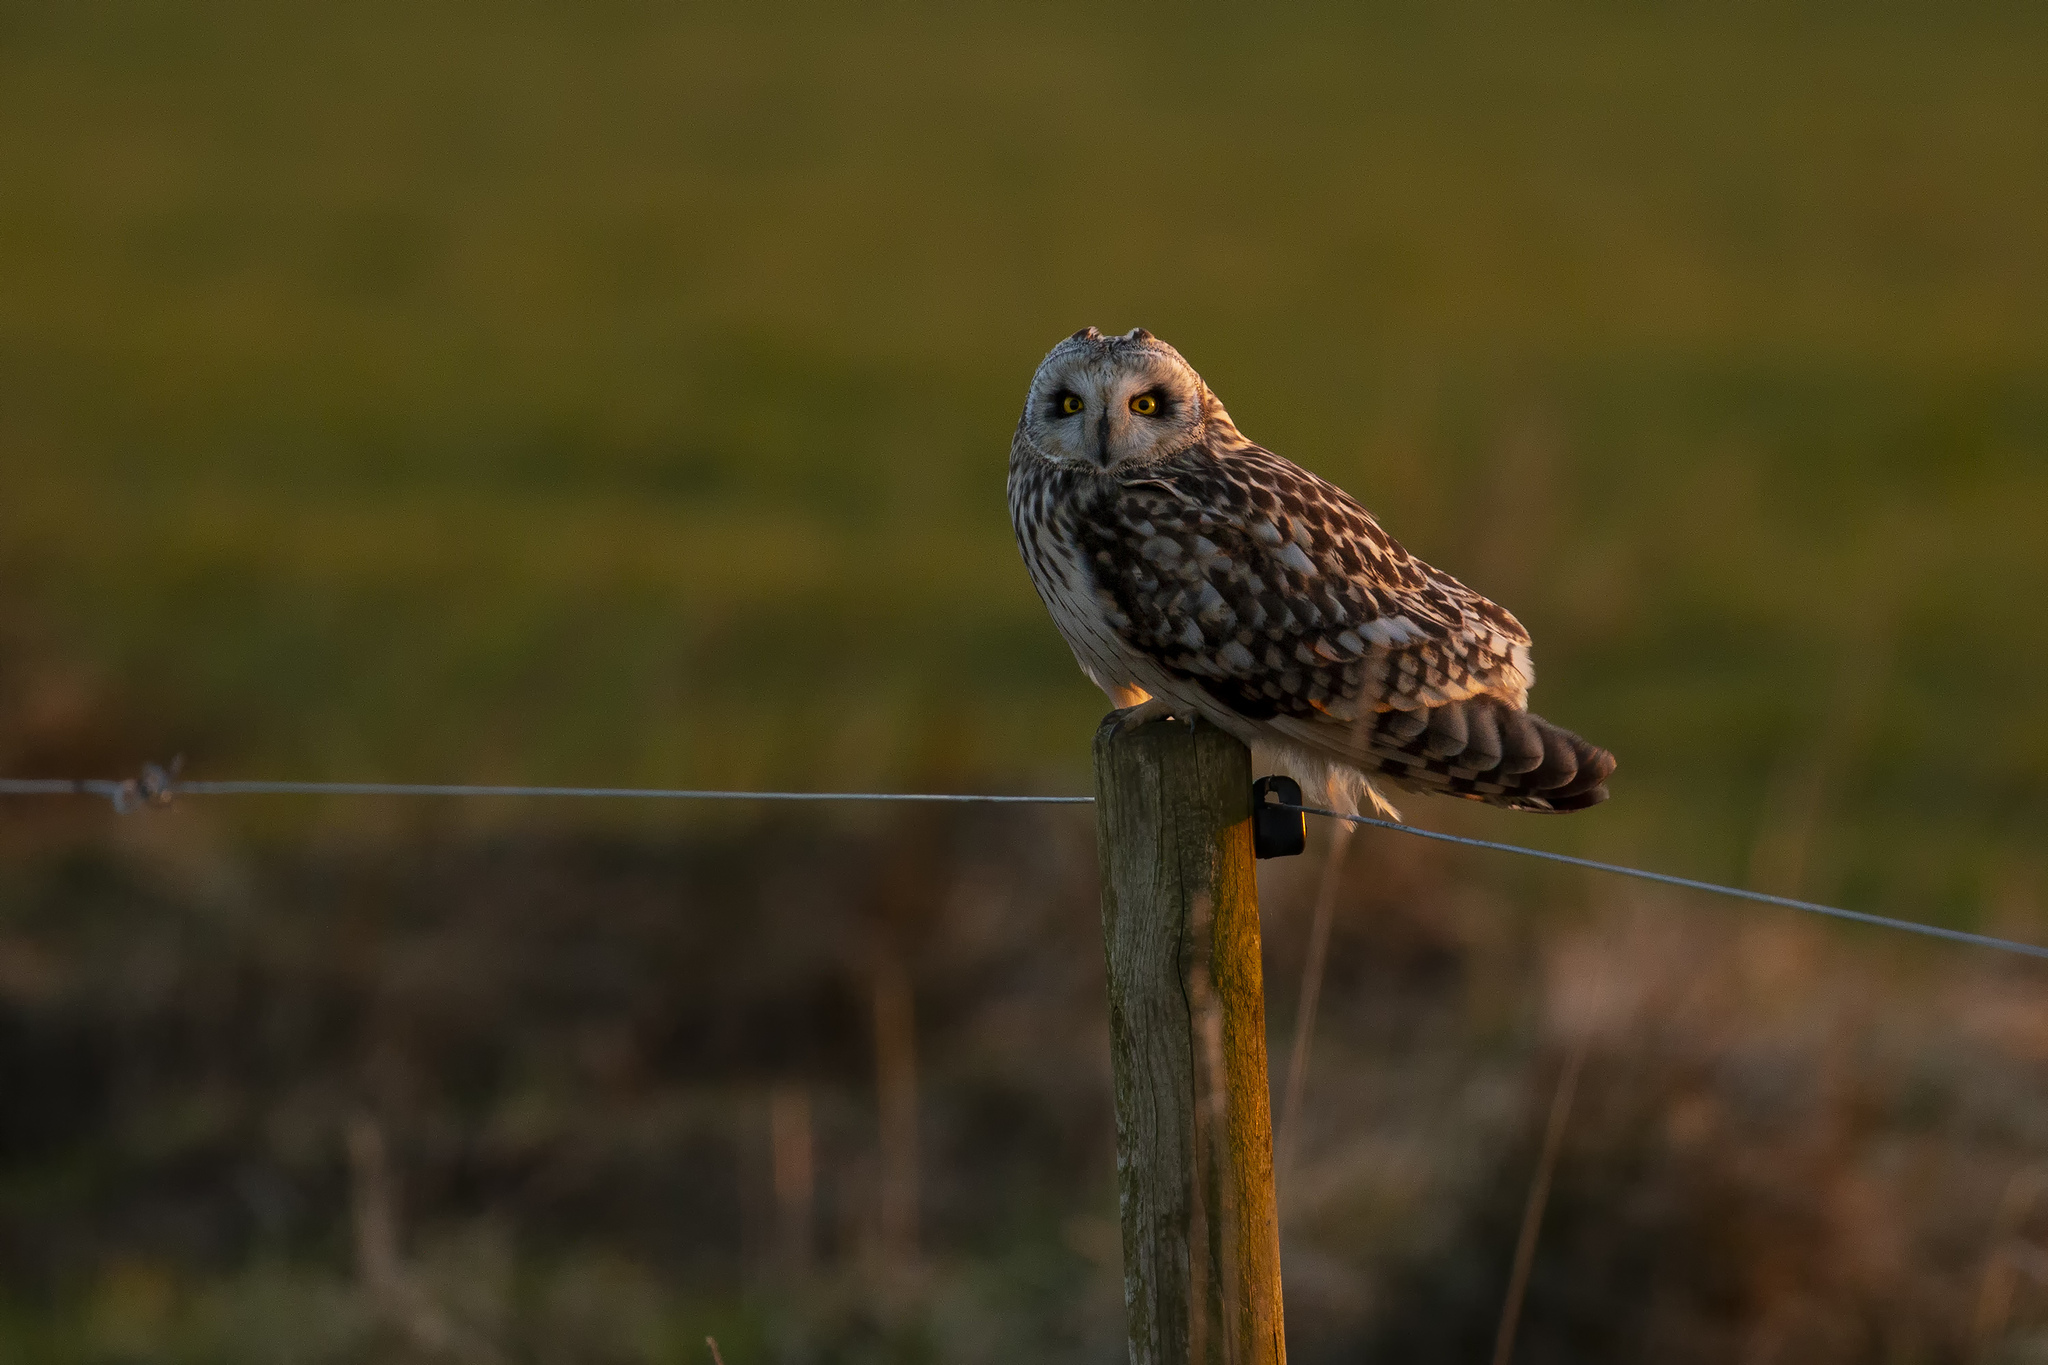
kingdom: Animalia
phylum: Chordata
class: Aves
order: Strigiformes
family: Strigidae
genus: Asio
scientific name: Asio flammeus
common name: Short-eared owl
